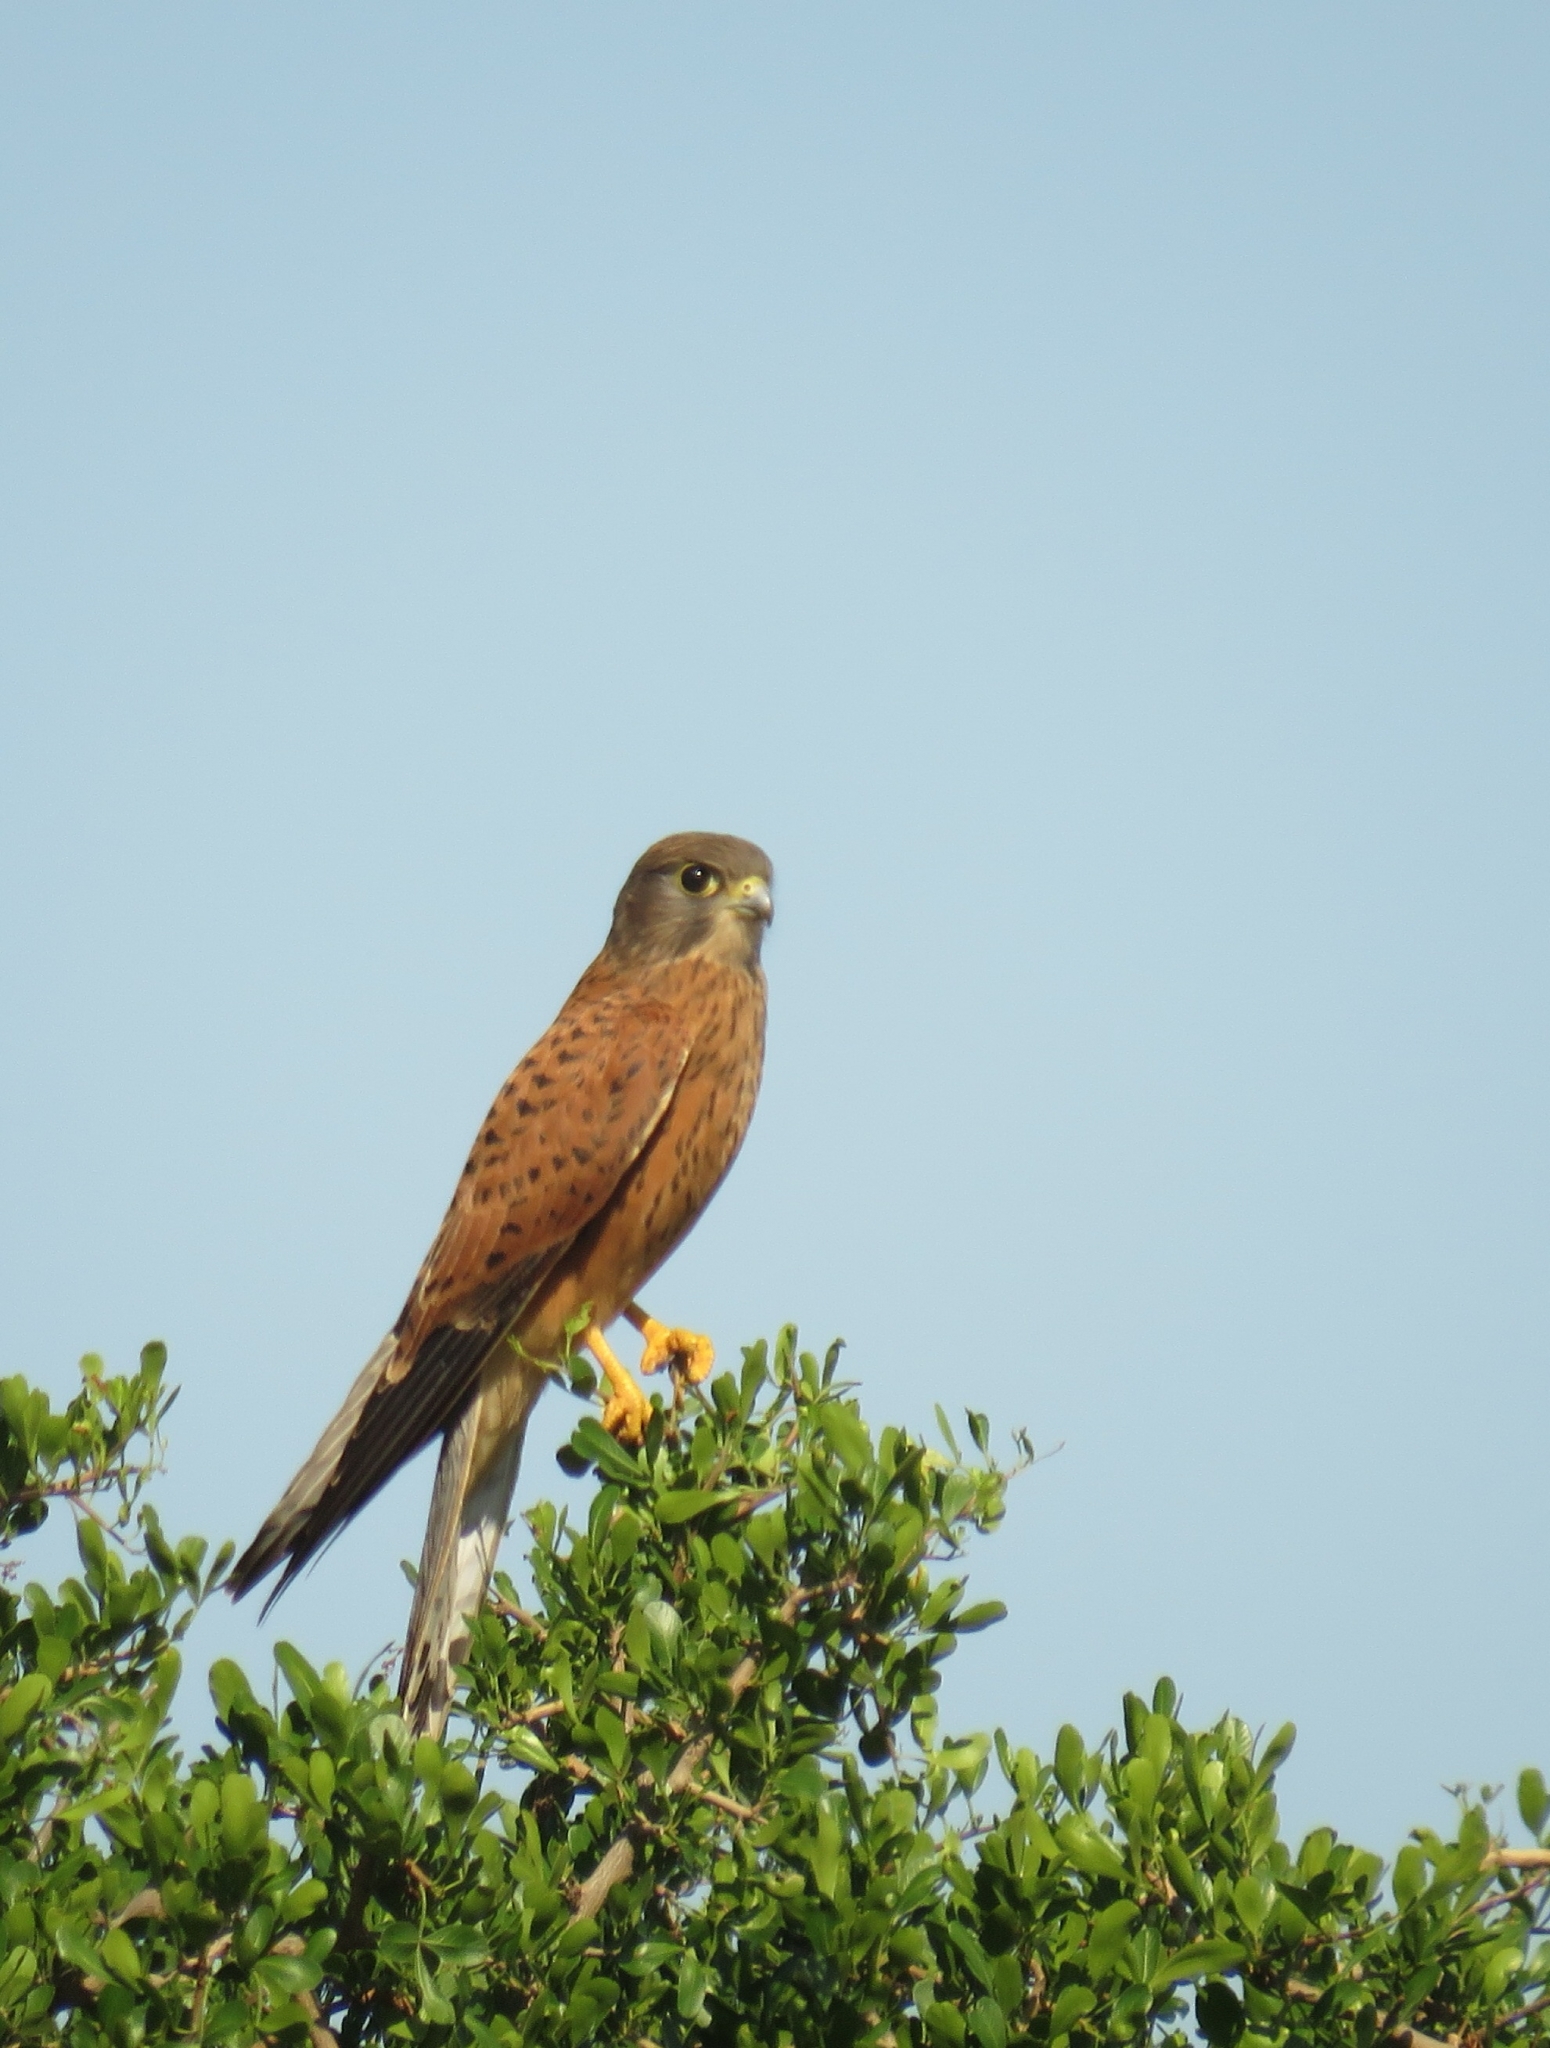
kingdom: Animalia
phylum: Chordata
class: Aves
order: Falconiformes
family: Falconidae
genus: Falco
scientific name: Falco rupicolus
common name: Rock kestrel
